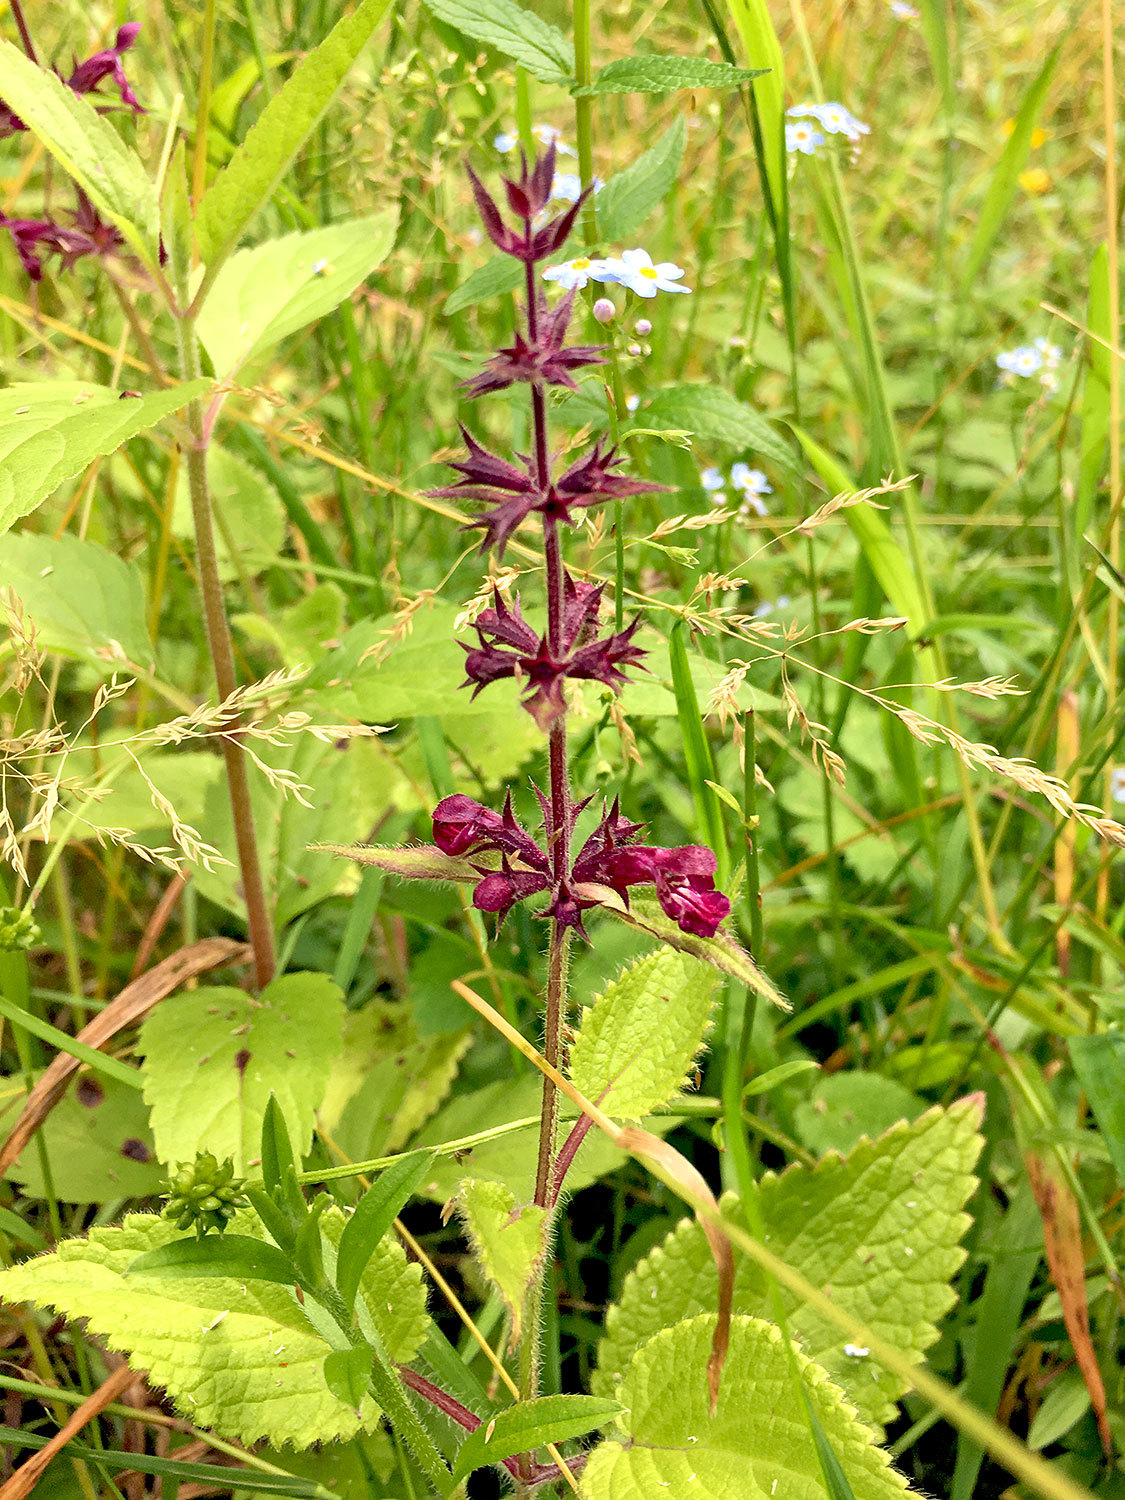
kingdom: Plantae
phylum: Tracheophyta
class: Magnoliopsida
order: Lamiales
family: Lamiaceae
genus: Stachys
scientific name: Stachys sylvatica
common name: Hedge woundwort
